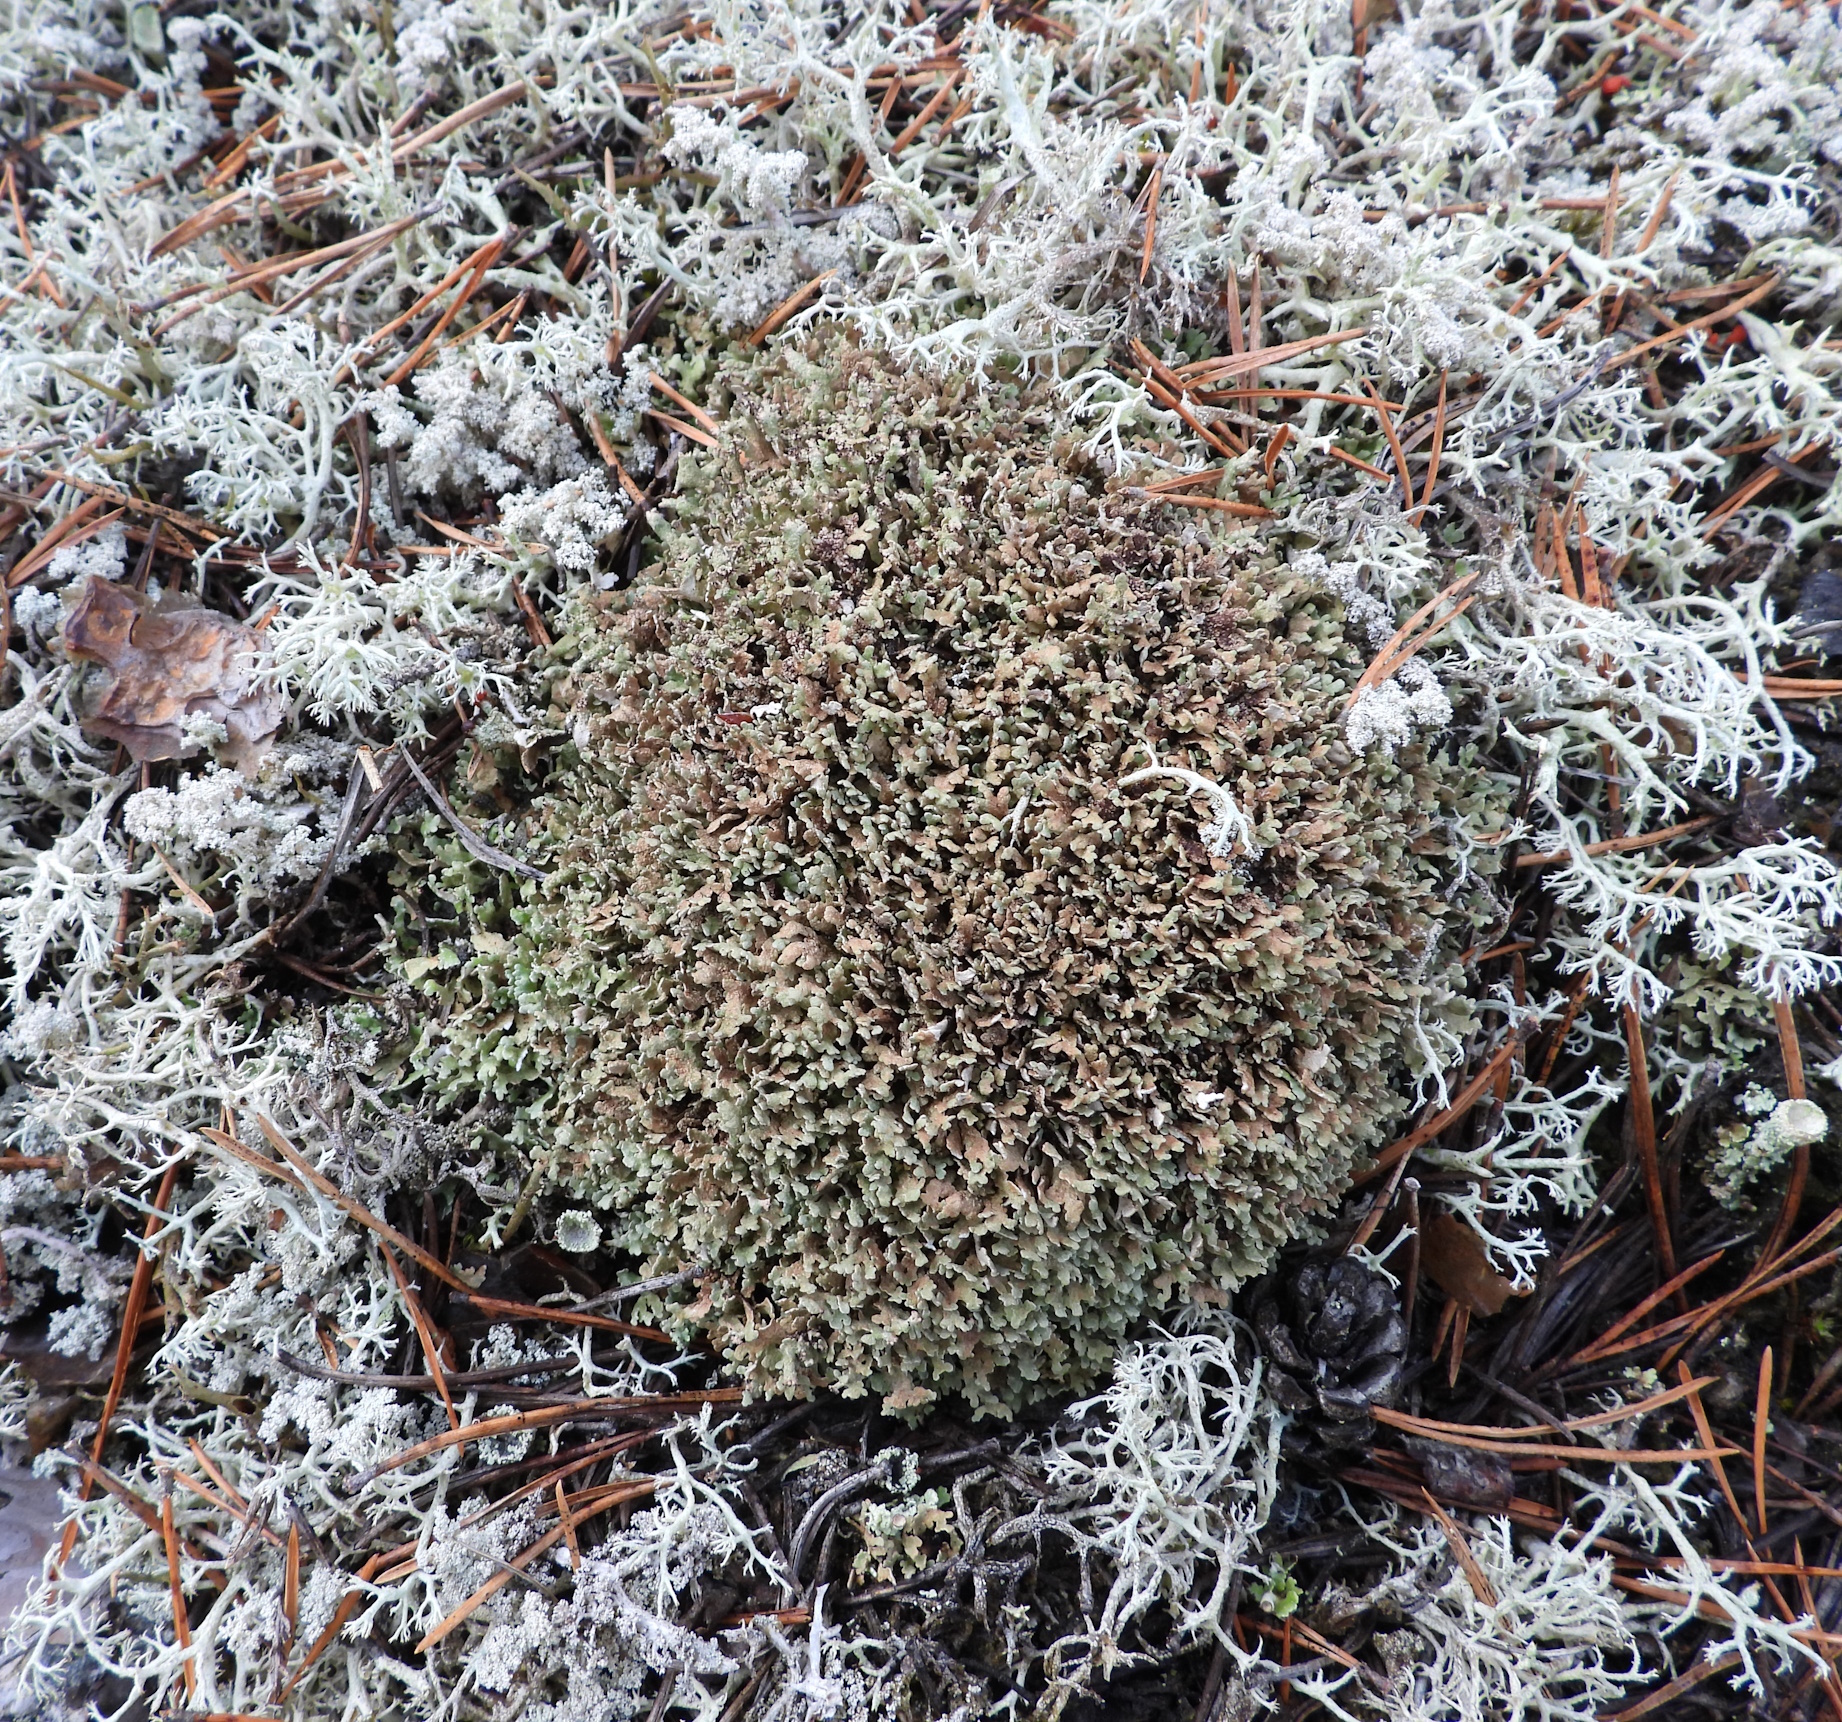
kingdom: Fungi
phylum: Ascomycota
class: Lecanoromycetes
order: Lecanorales
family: Cladoniaceae
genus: Cladonia
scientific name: Cladonia strepsilis
